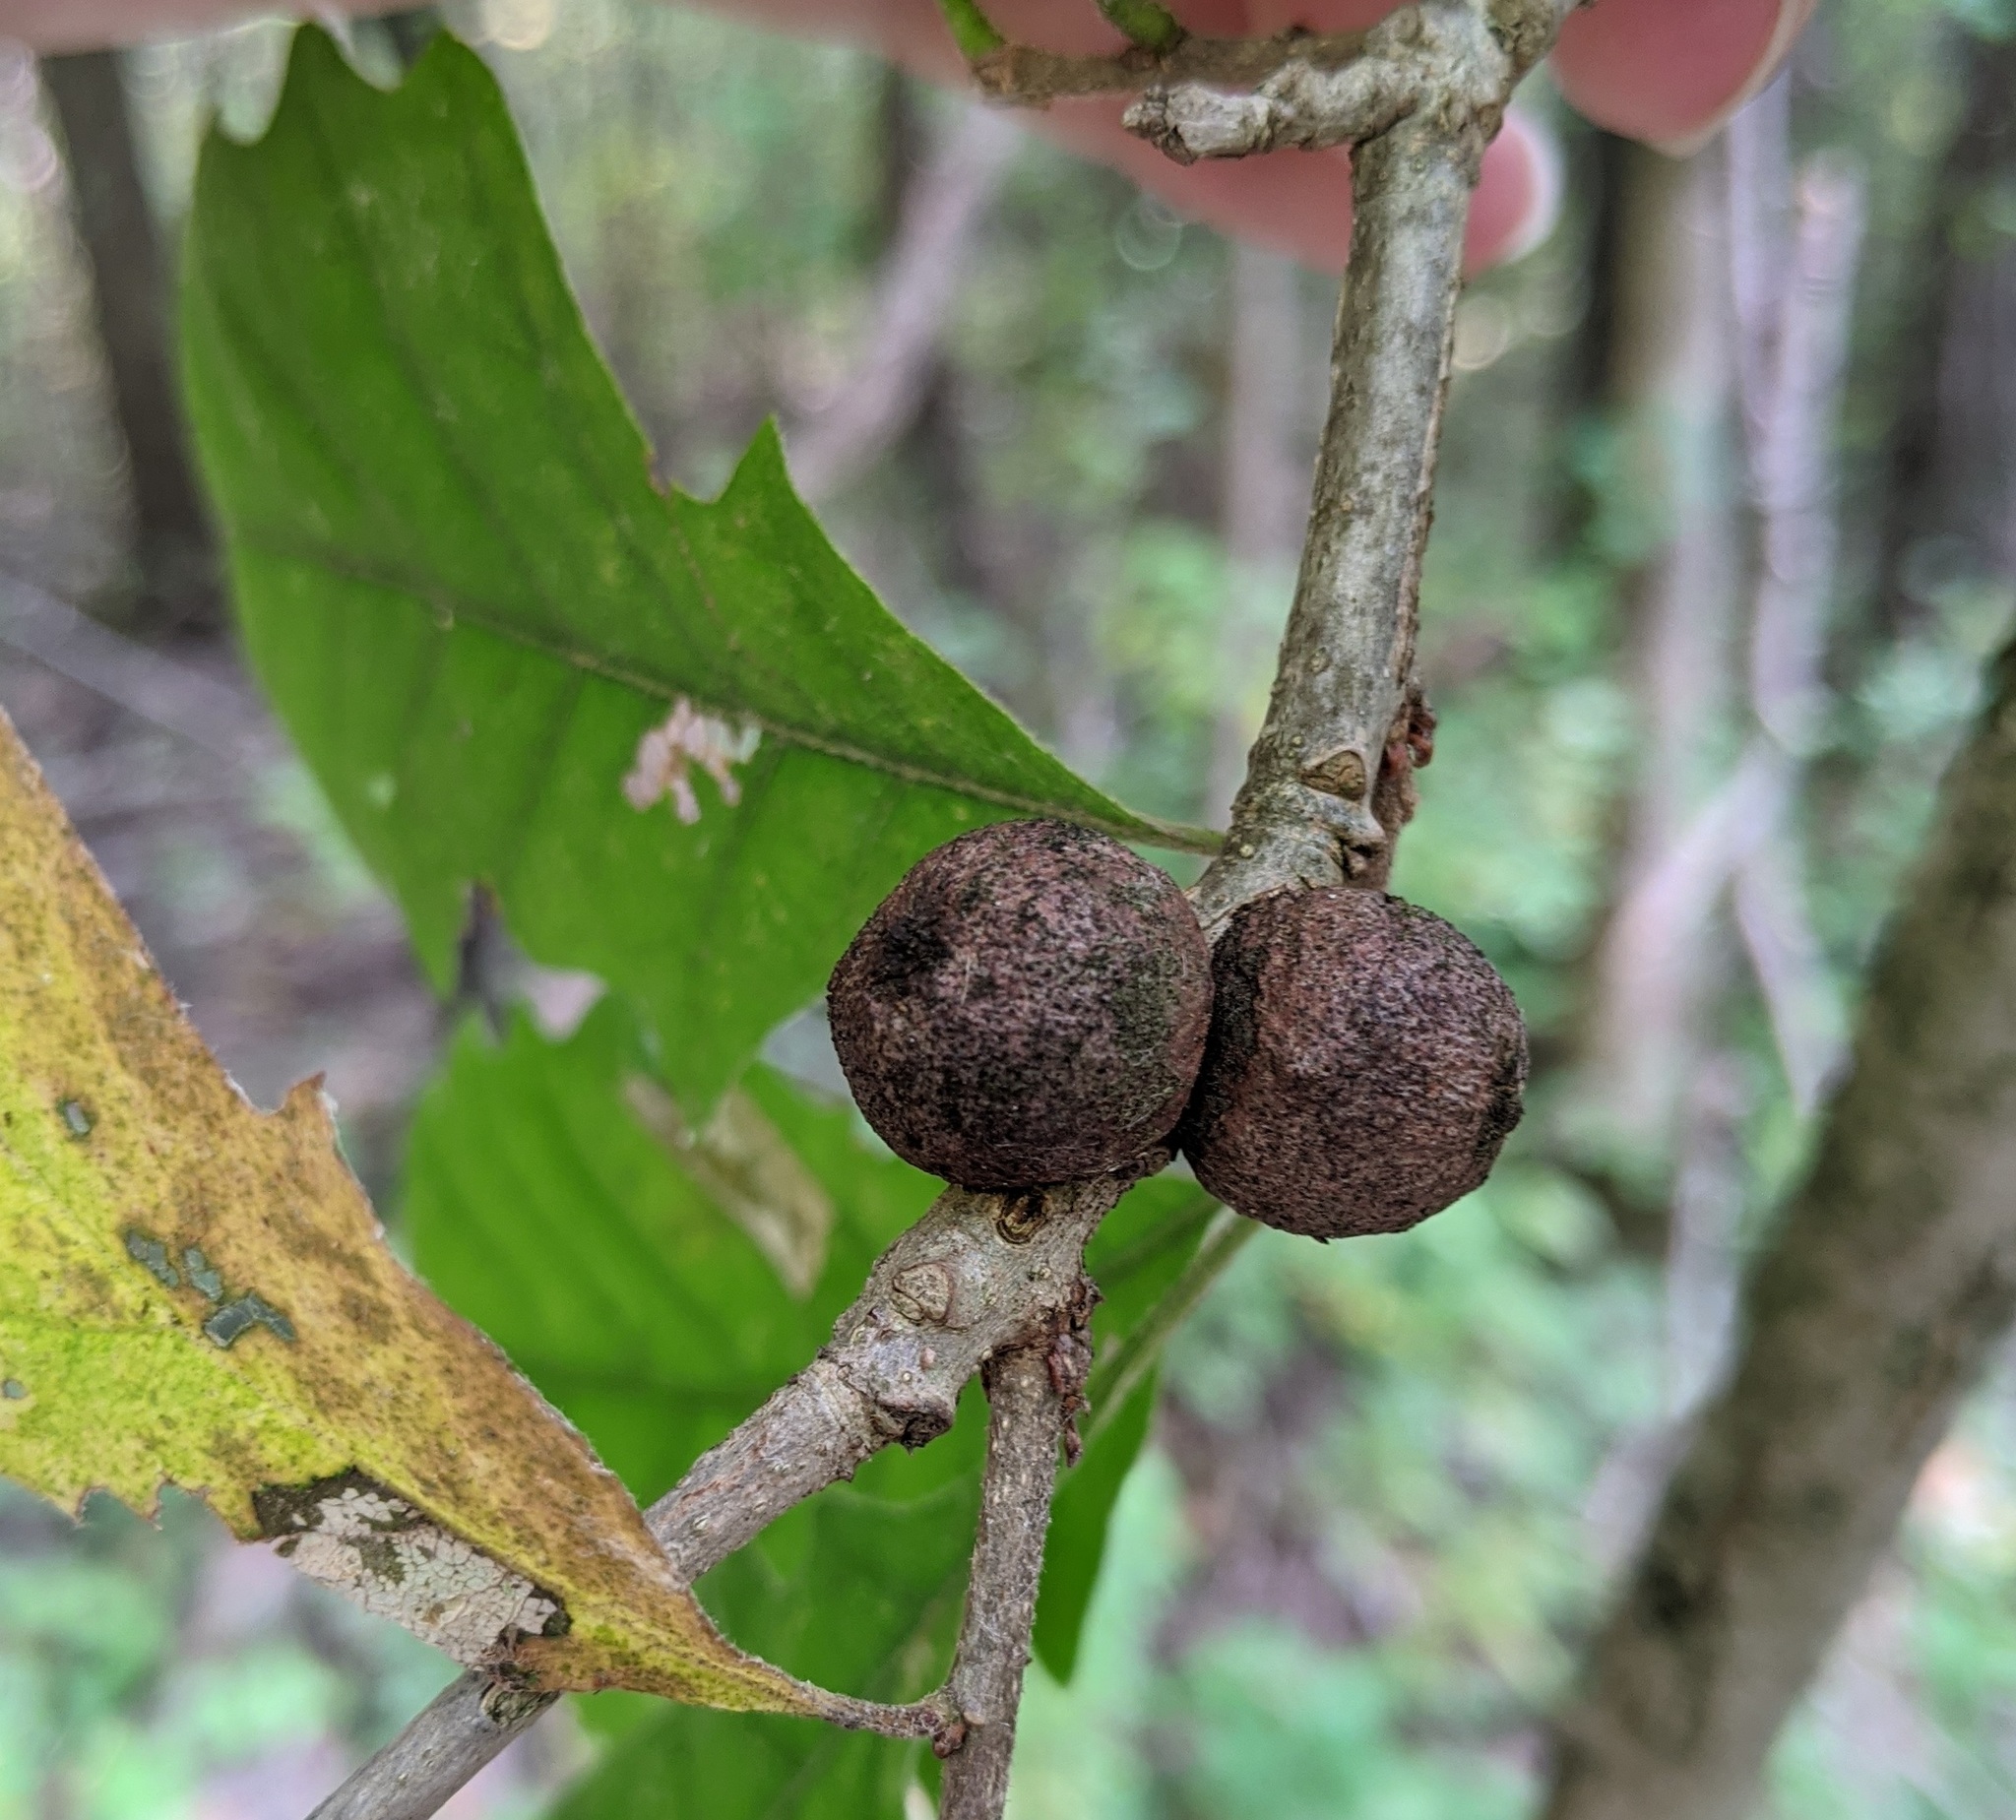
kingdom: Animalia
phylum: Arthropoda
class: Insecta
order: Hymenoptera
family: Cynipidae
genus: Disholcaspis
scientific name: Disholcaspis
